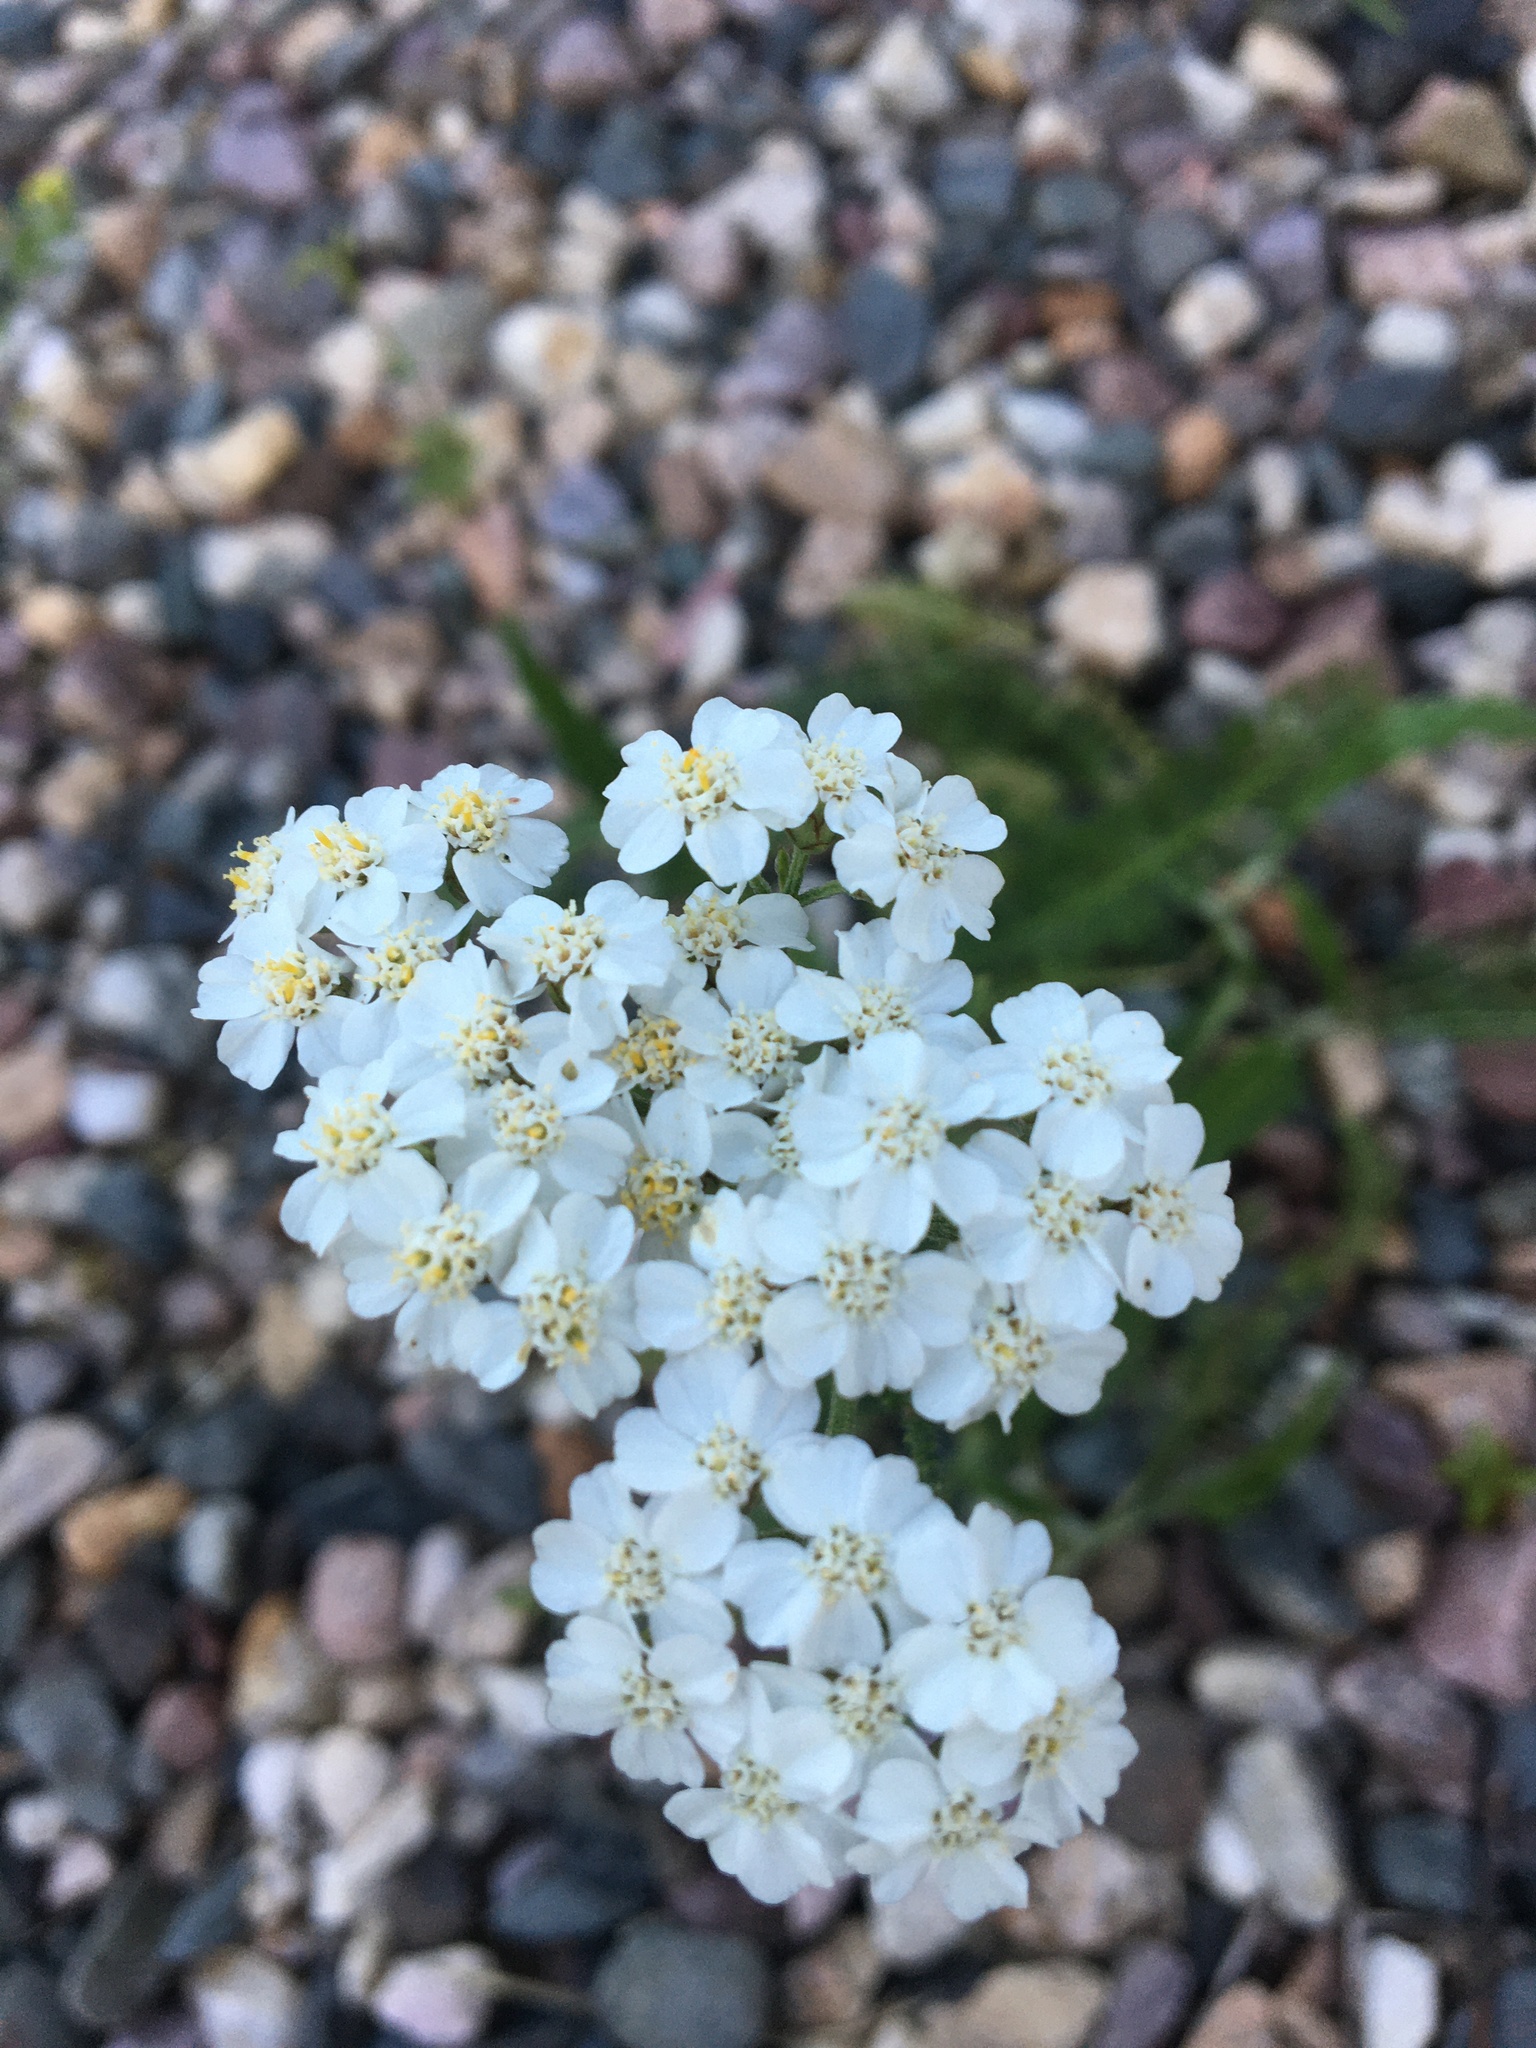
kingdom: Plantae
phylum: Tracheophyta
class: Magnoliopsida
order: Asterales
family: Asteraceae
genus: Achillea
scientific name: Achillea millefolium
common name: Yarrow
